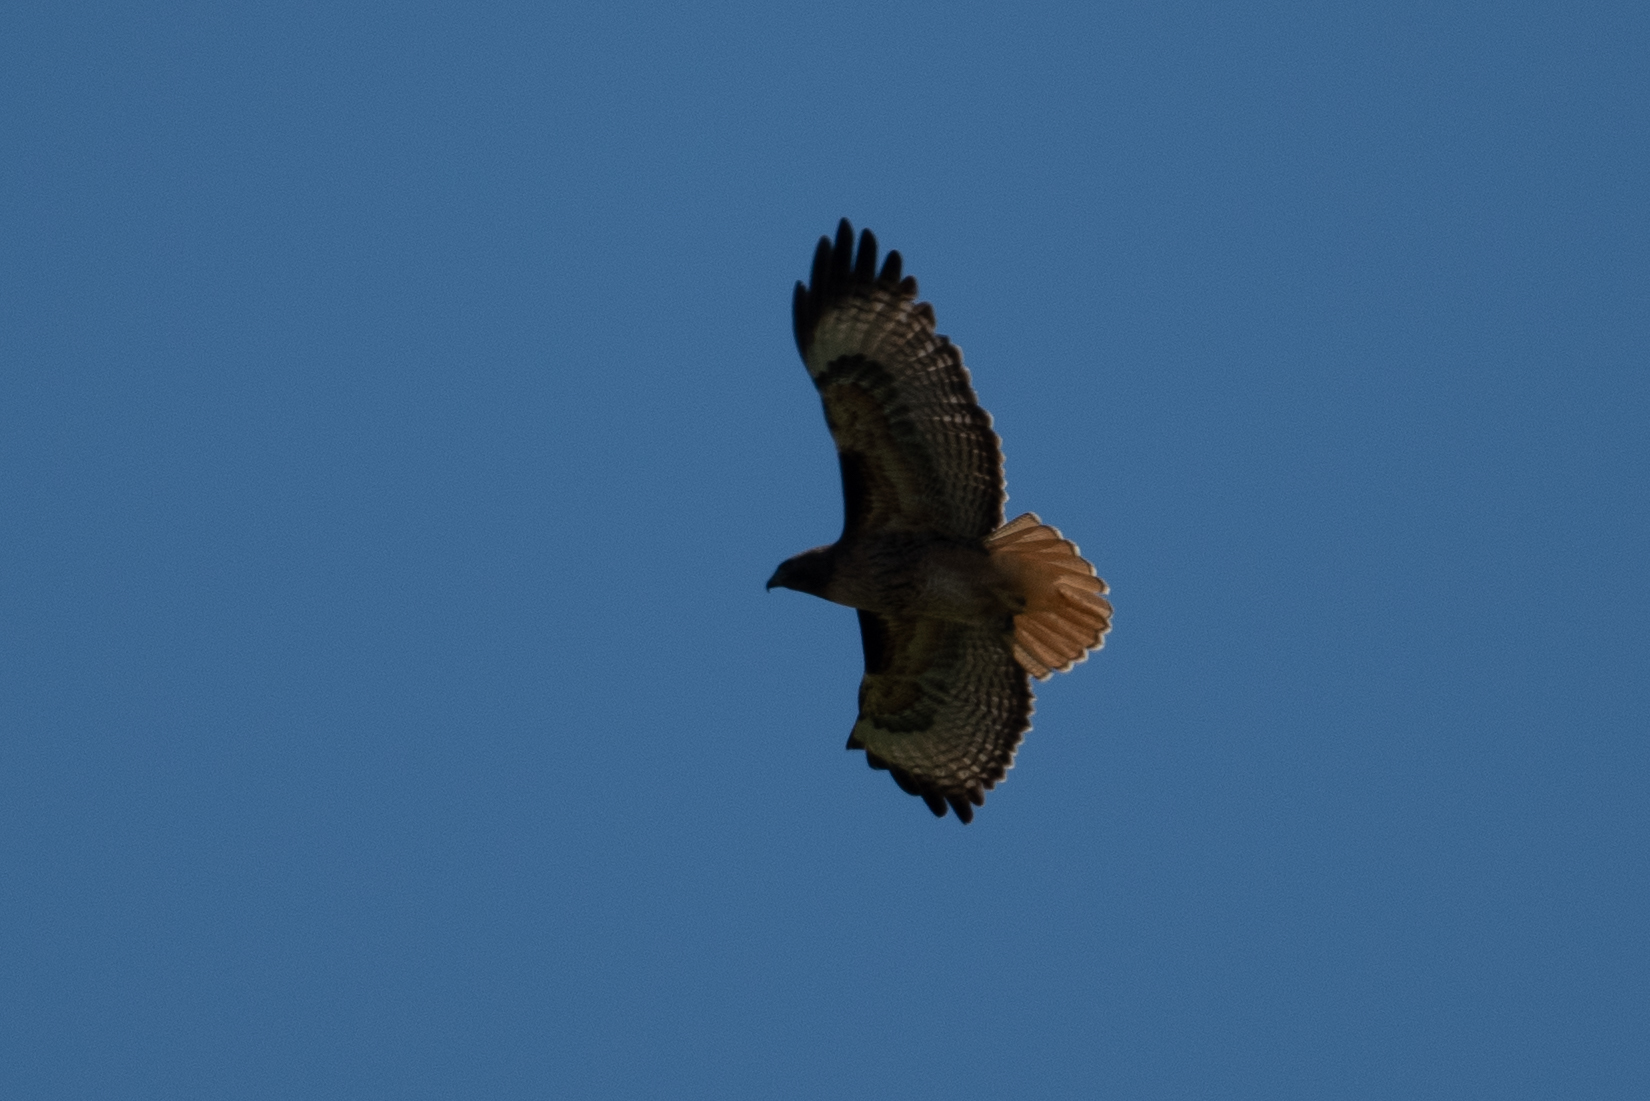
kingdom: Animalia
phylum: Chordata
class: Aves
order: Accipitriformes
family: Accipitridae
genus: Buteo
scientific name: Buteo jamaicensis
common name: Red-tailed hawk
